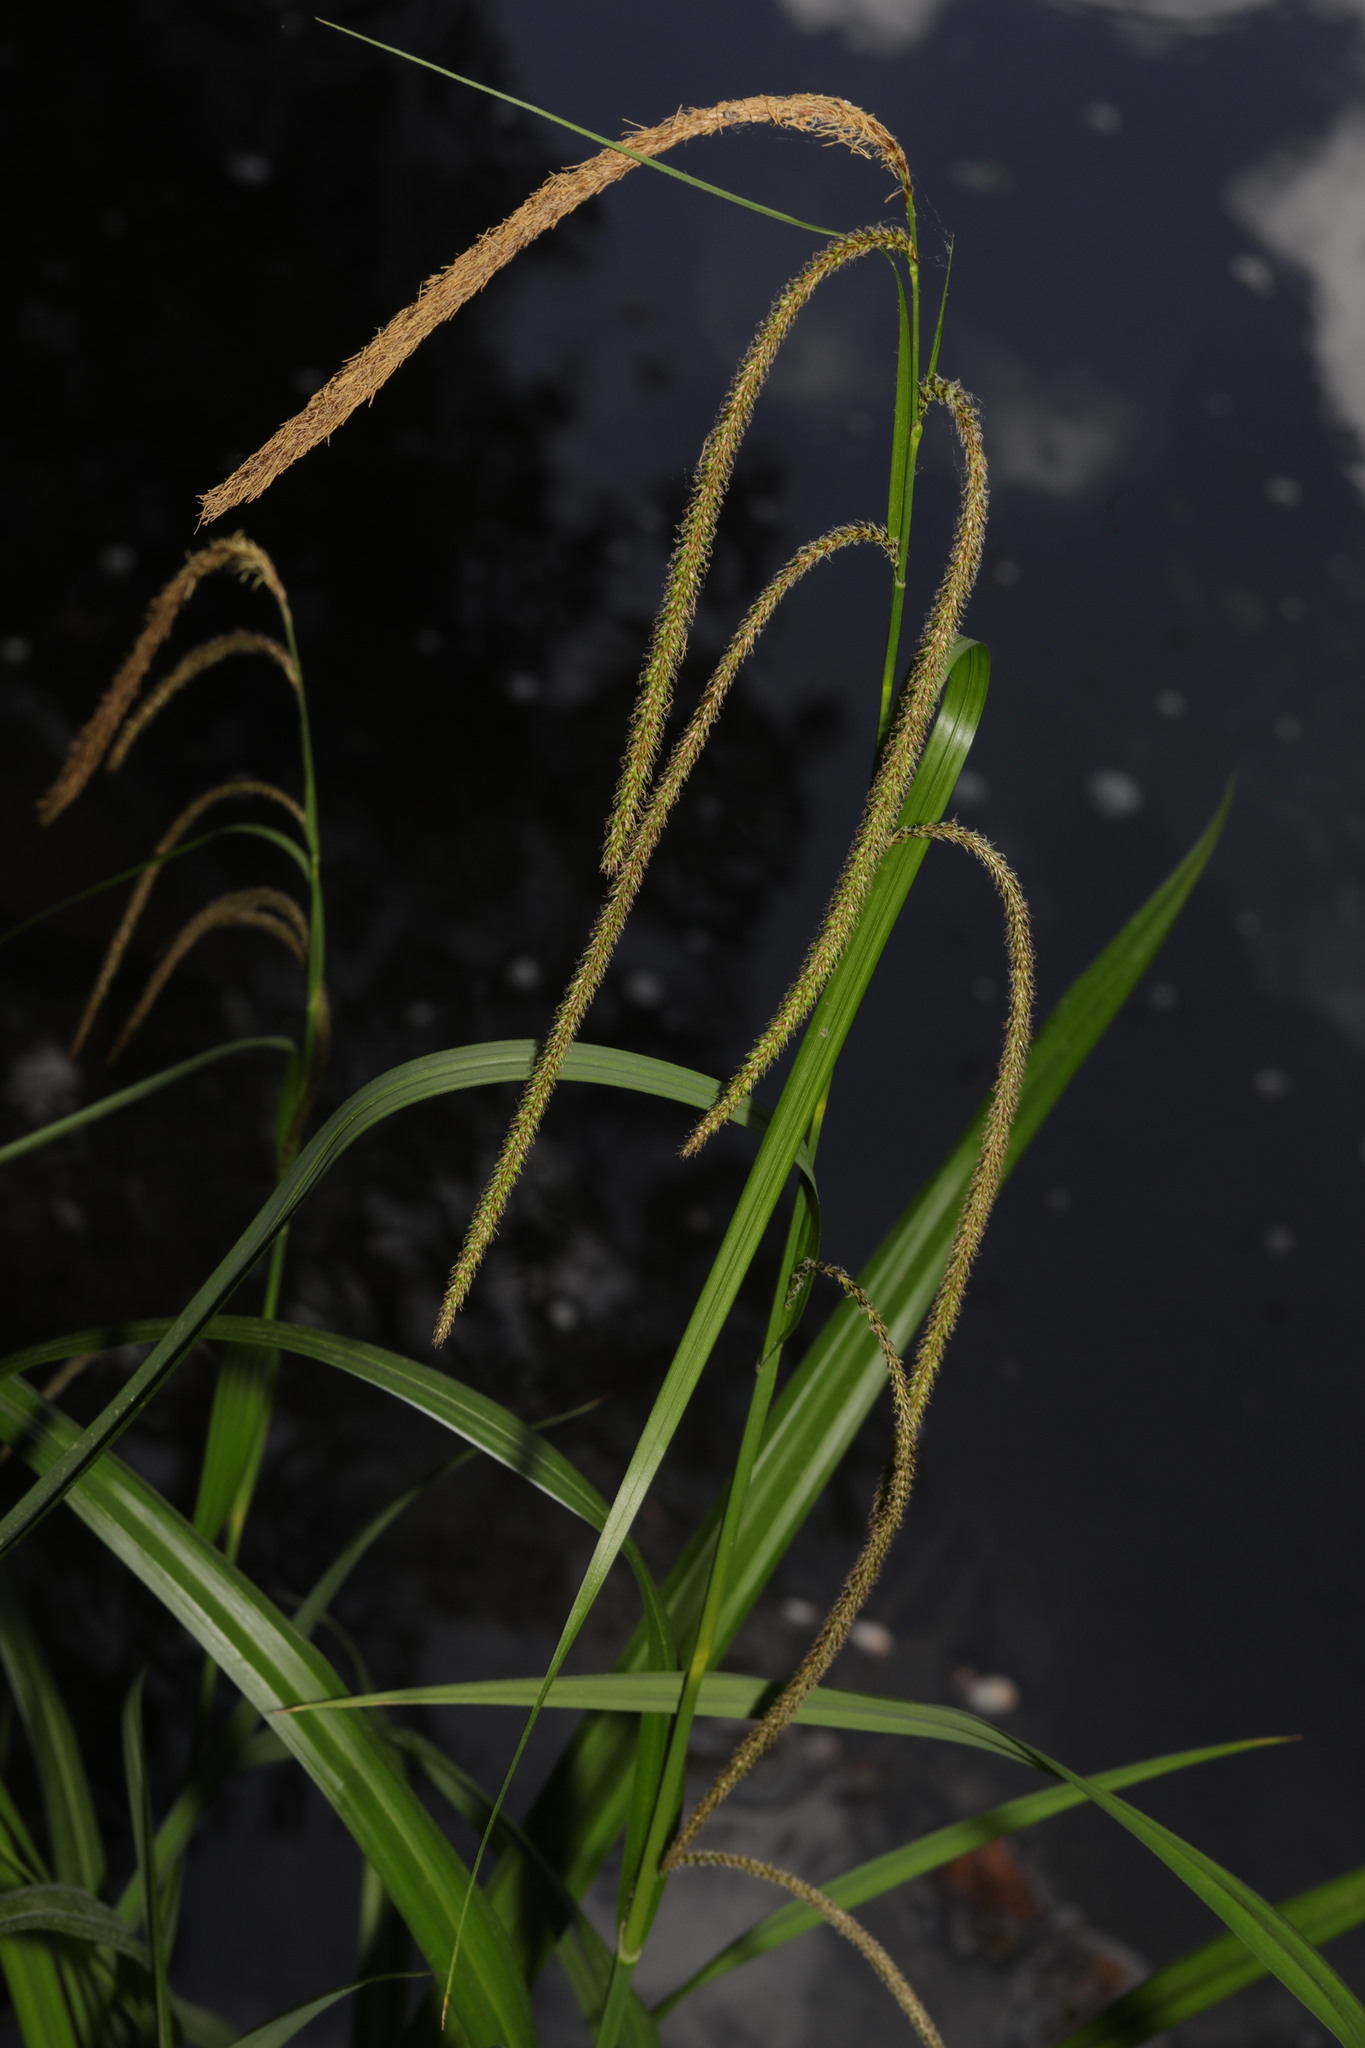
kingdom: Plantae
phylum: Tracheophyta
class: Liliopsida
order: Poales
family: Cyperaceae
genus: Carex
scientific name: Carex pendula
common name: Pendulous sedge
